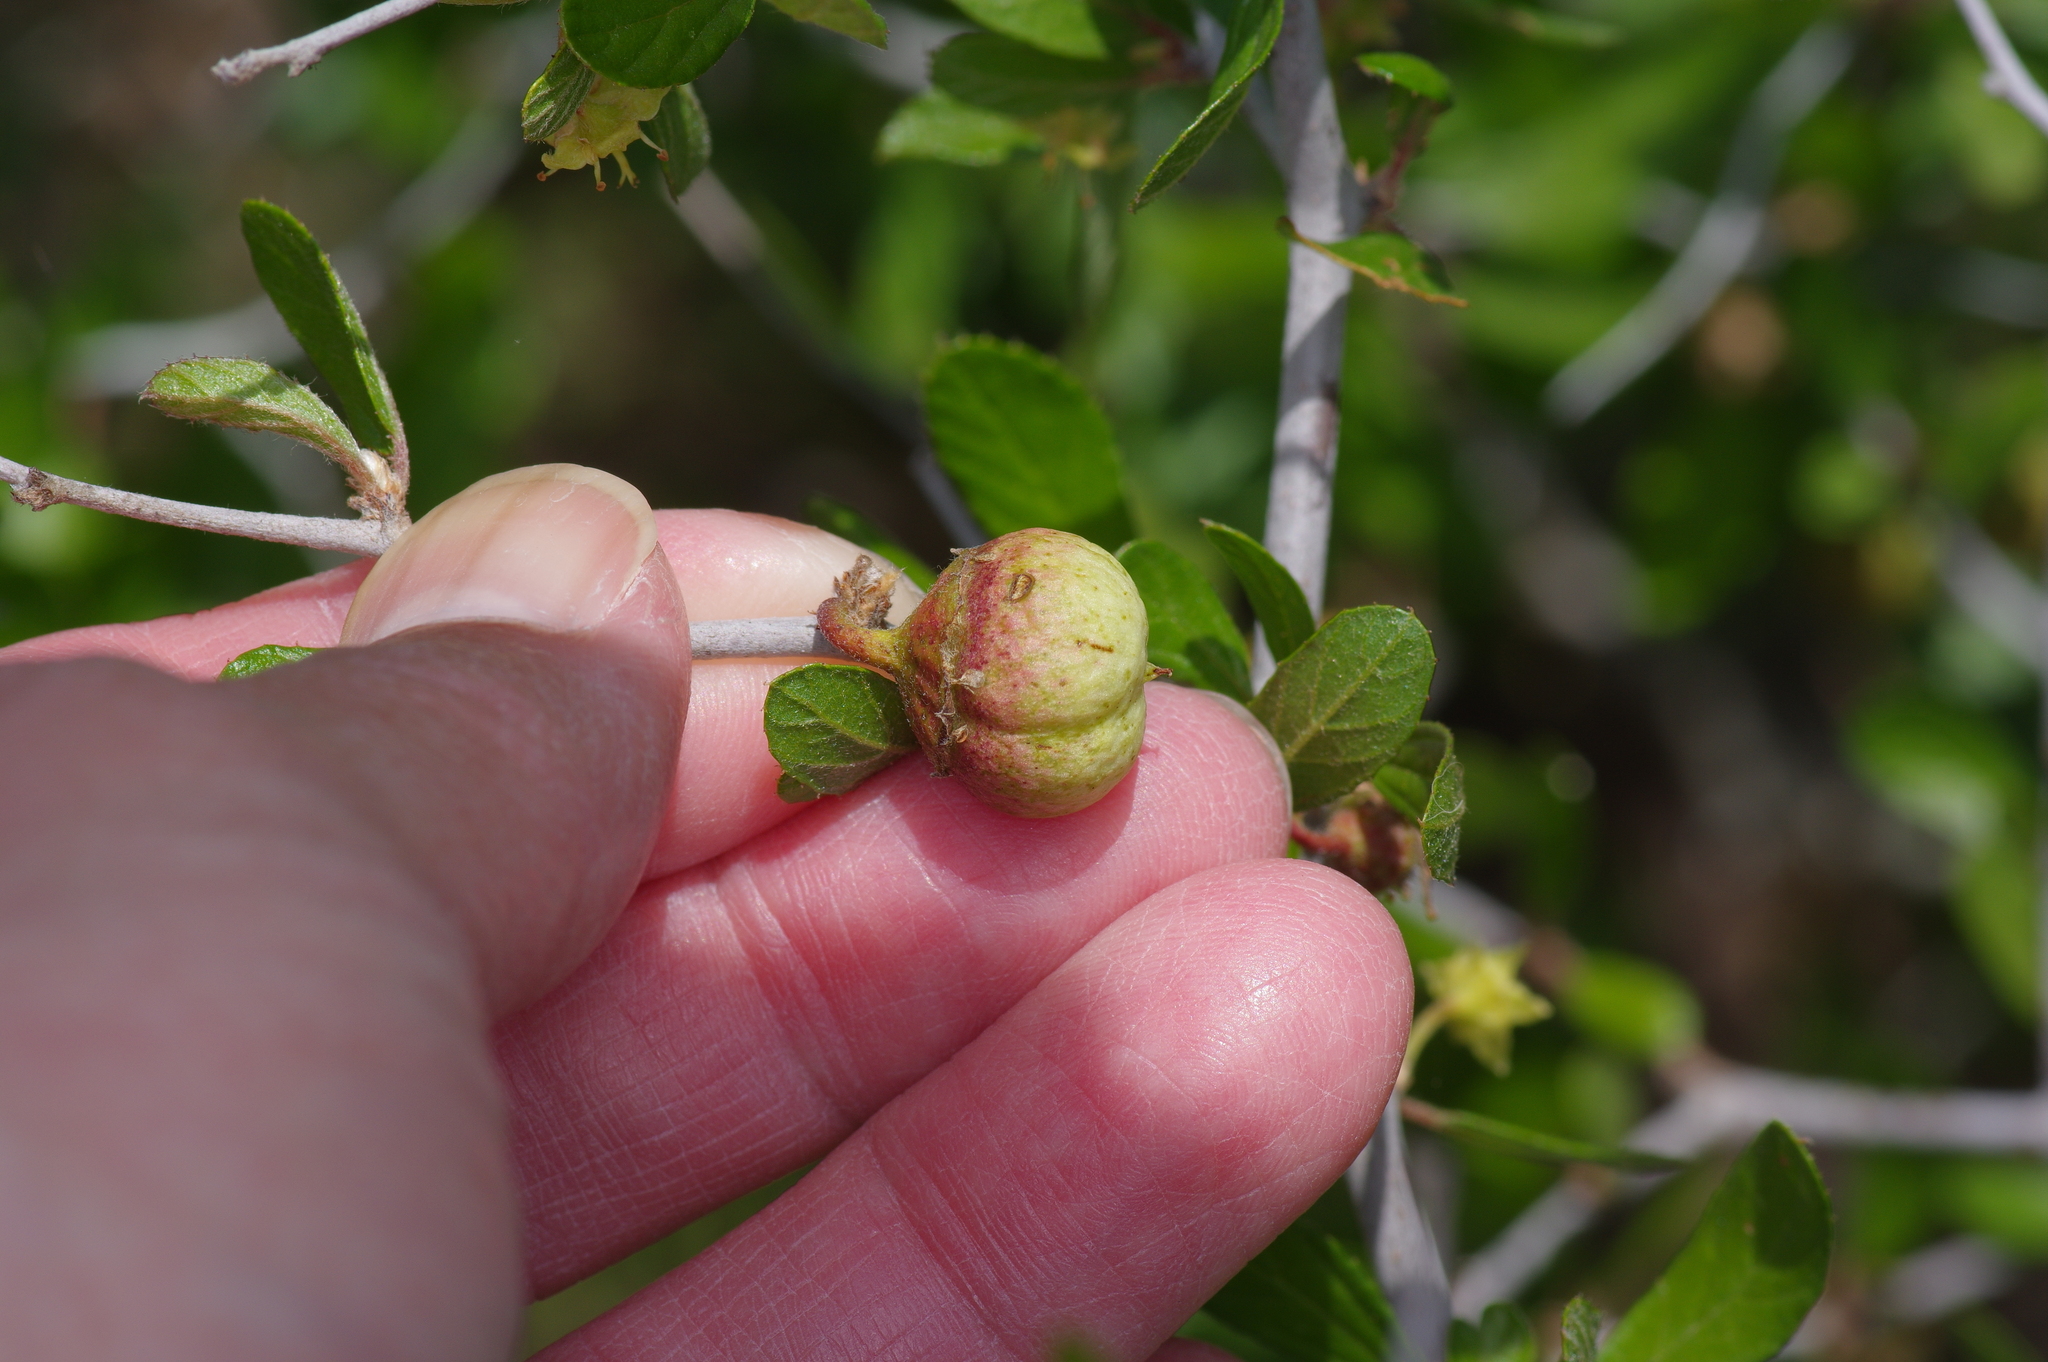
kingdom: Plantae
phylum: Tracheophyta
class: Magnoliopsida
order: Rosales
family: Rhamnaceae
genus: Colubrina
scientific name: Colubrina texensis
